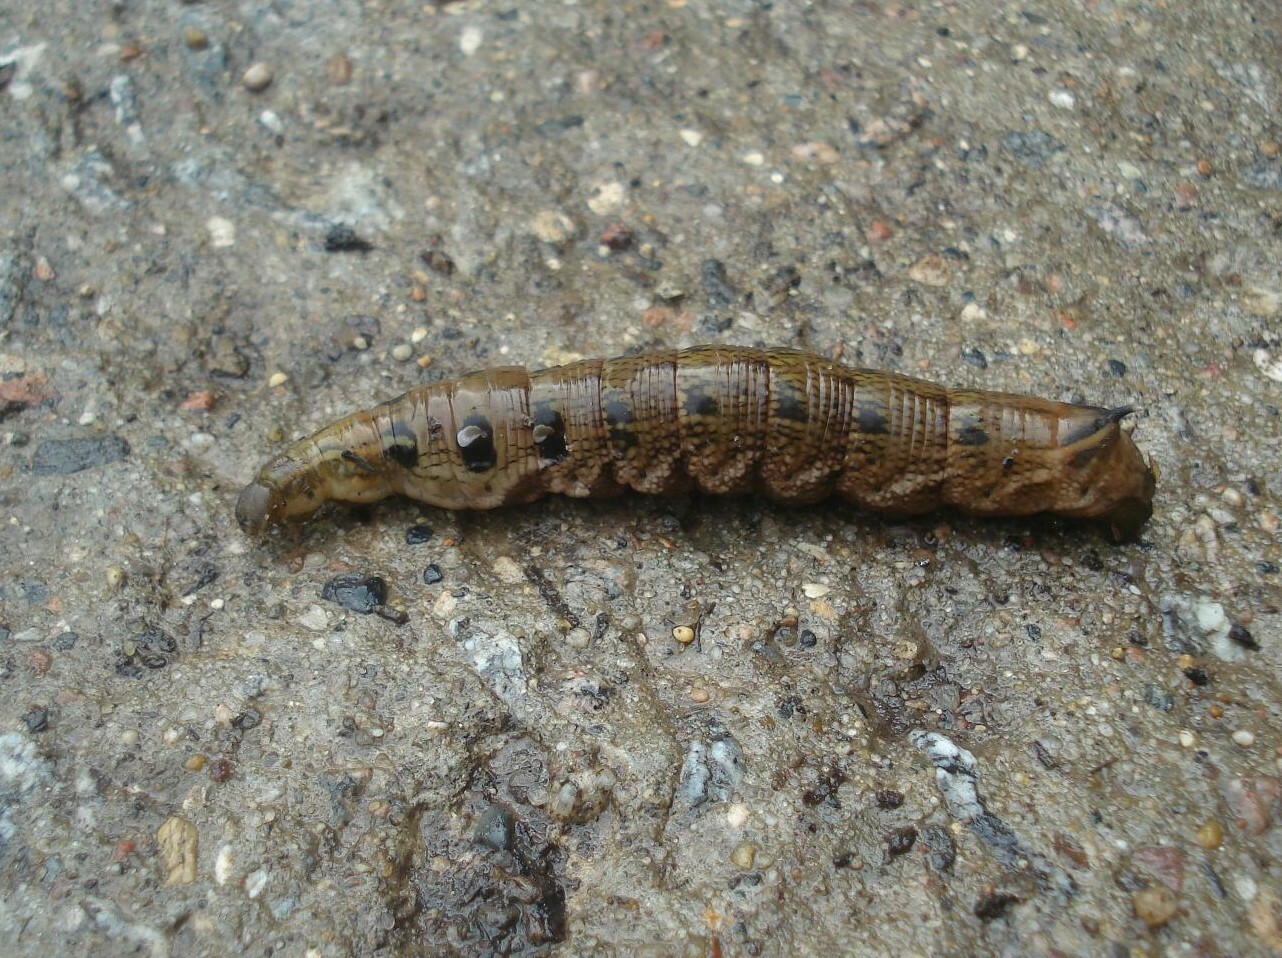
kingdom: Animalia
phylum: Arthropoda
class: Insecta
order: Lepidoptera
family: Sphingidae
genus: Deilephila
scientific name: Deilephila elpenor
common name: Elephant hawk-moth
